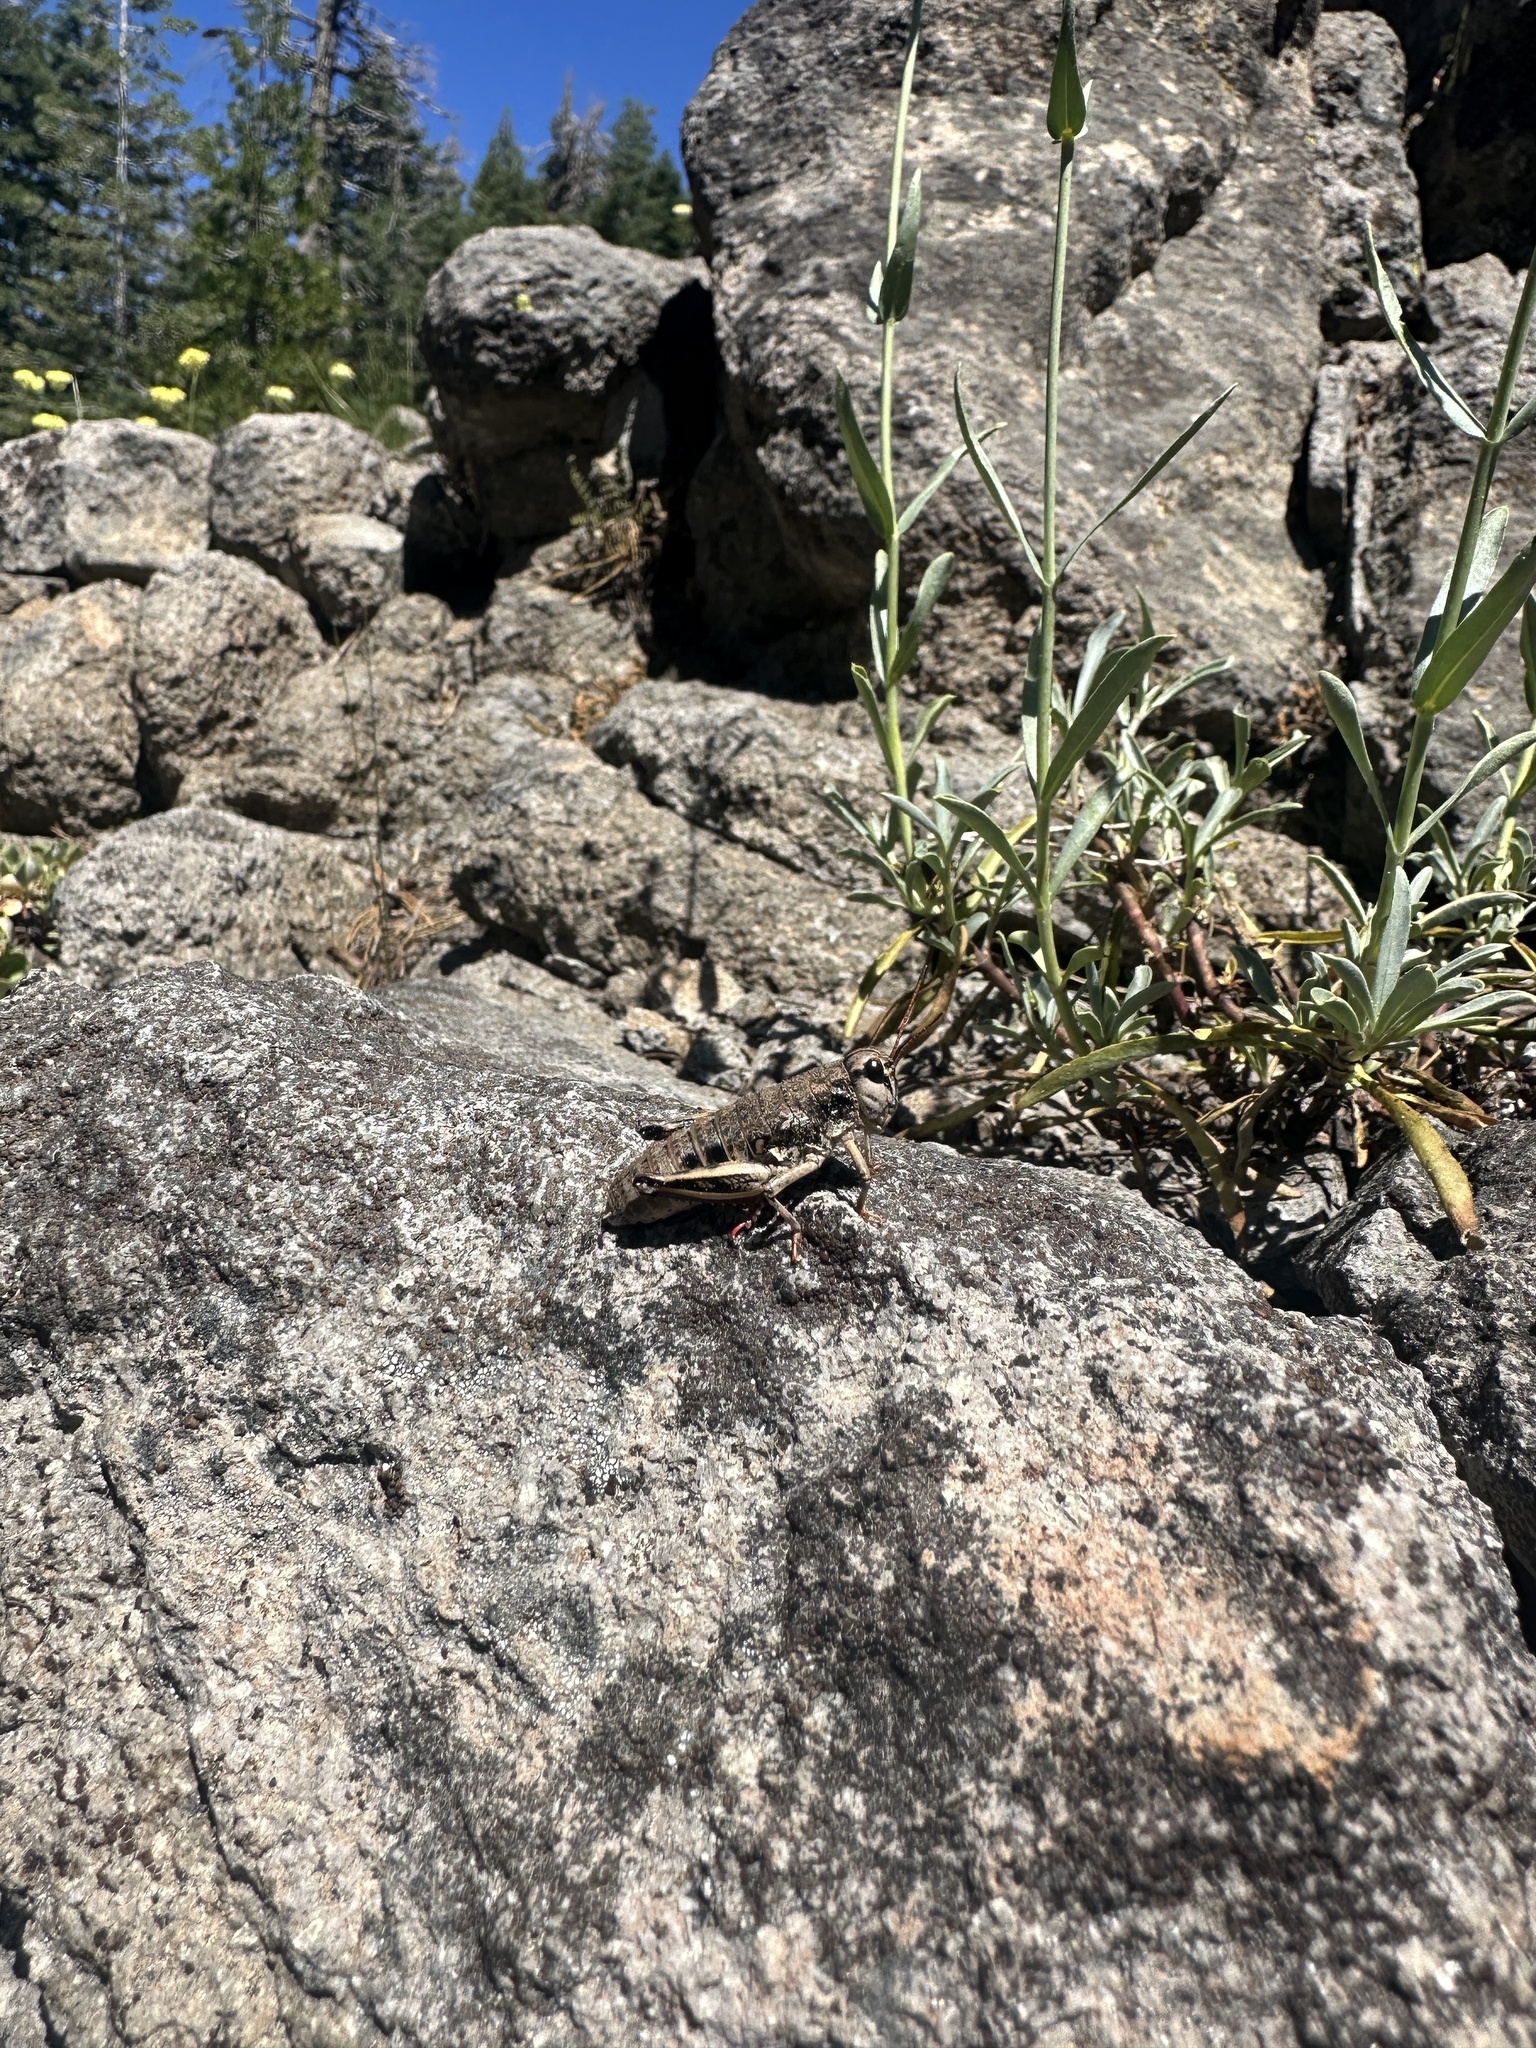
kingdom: Animalia
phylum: Arthropoda
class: Insecta
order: Orthoptera
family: Acrididae
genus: Bradynotes
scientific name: Bradynotes obesa
